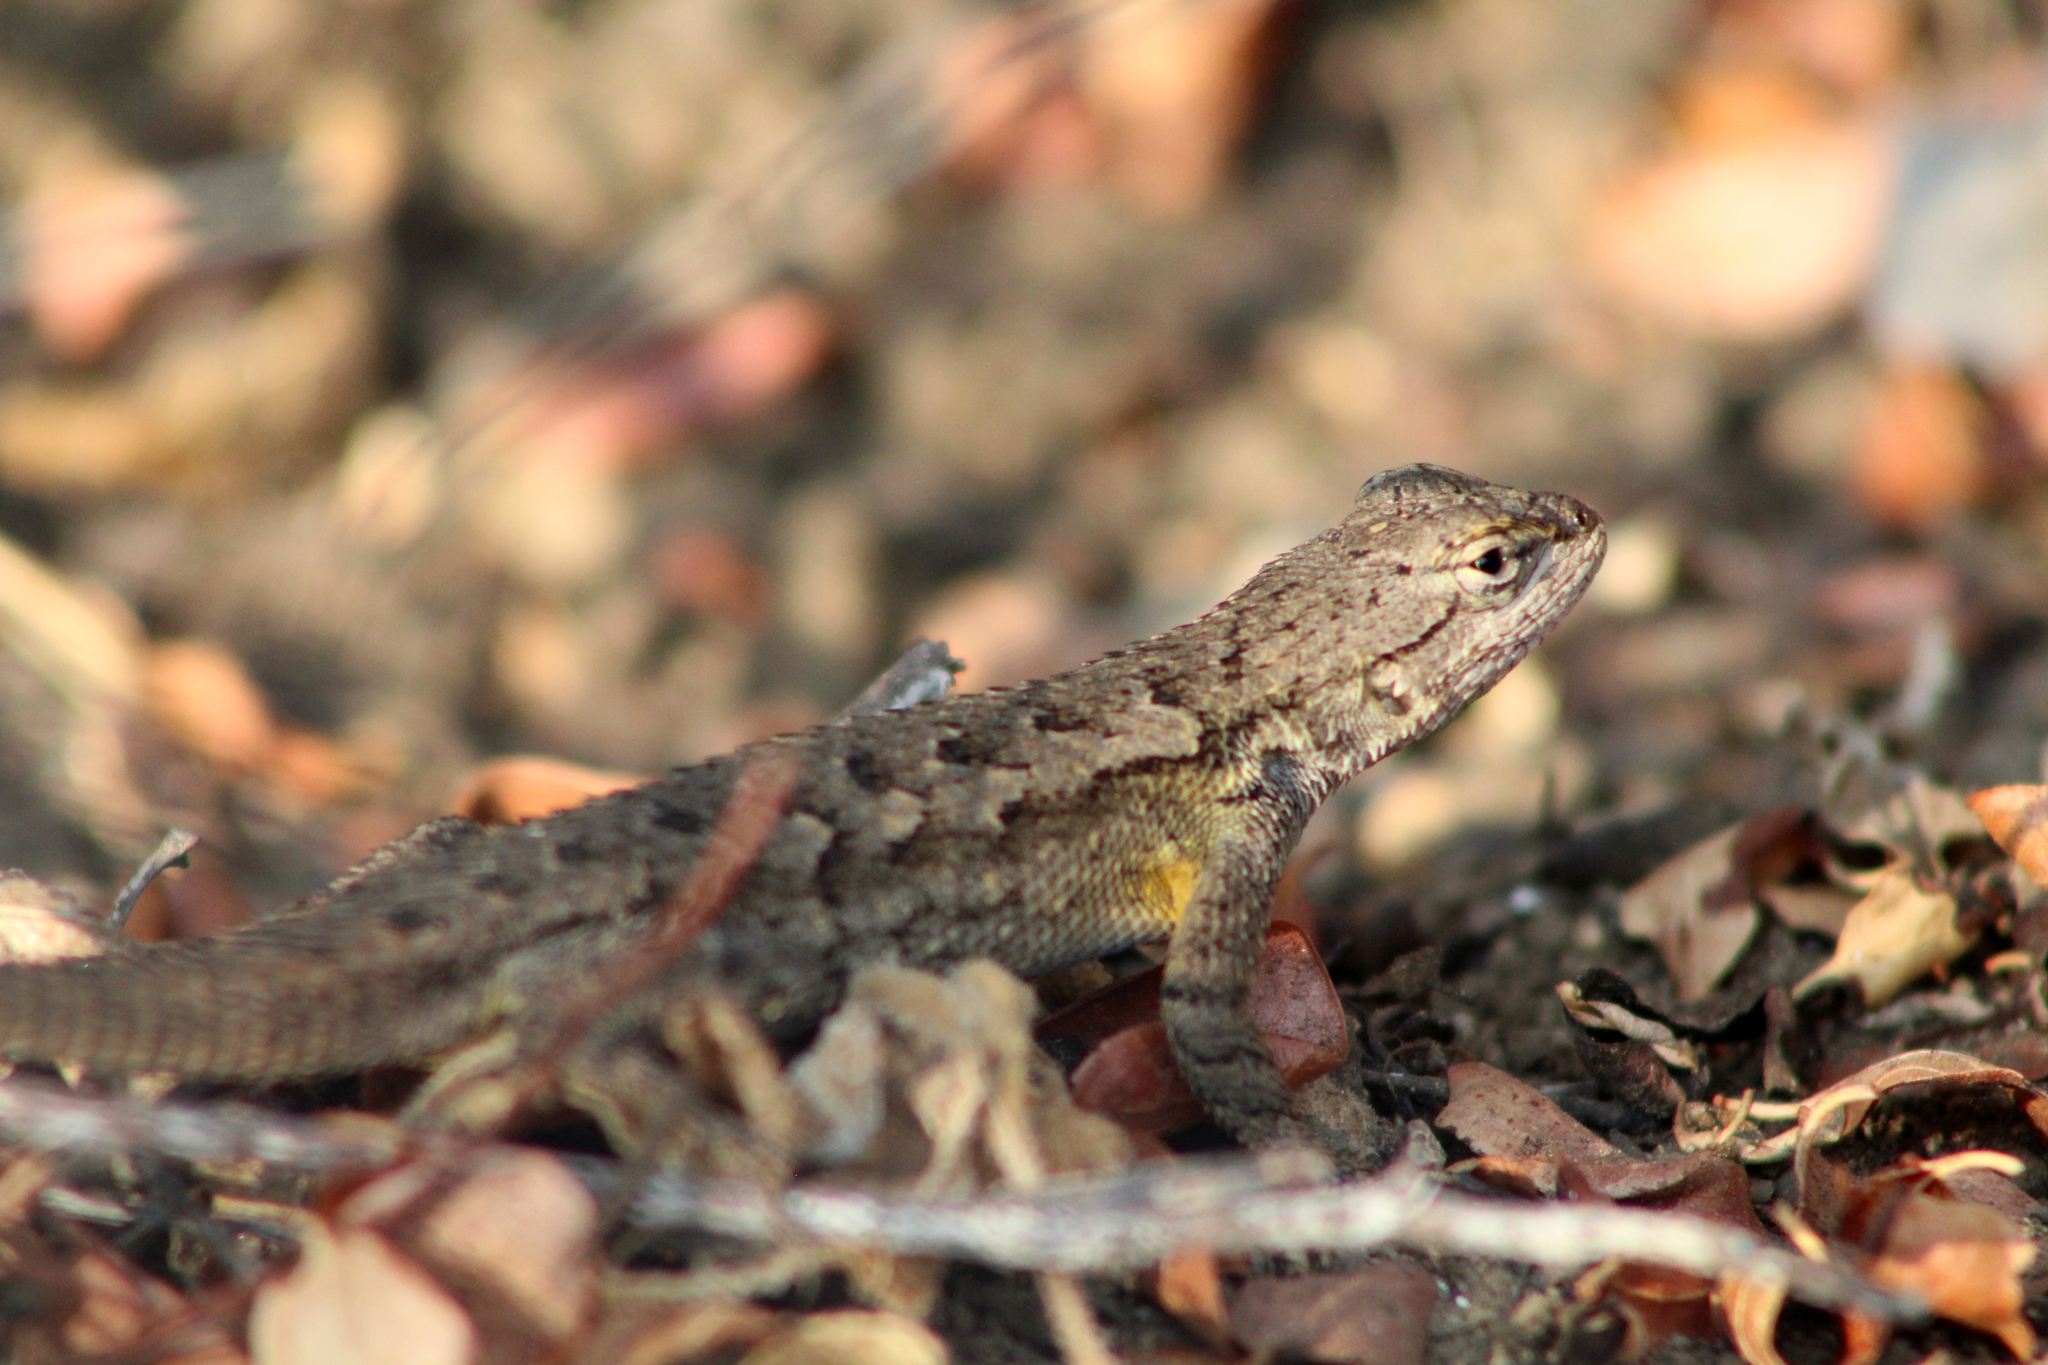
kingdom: Animalia
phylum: Chordata
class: Squamata
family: Phrynosomatidae
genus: Sceloporus
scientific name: Sceloporus occidentalis
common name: Western fence lizard
